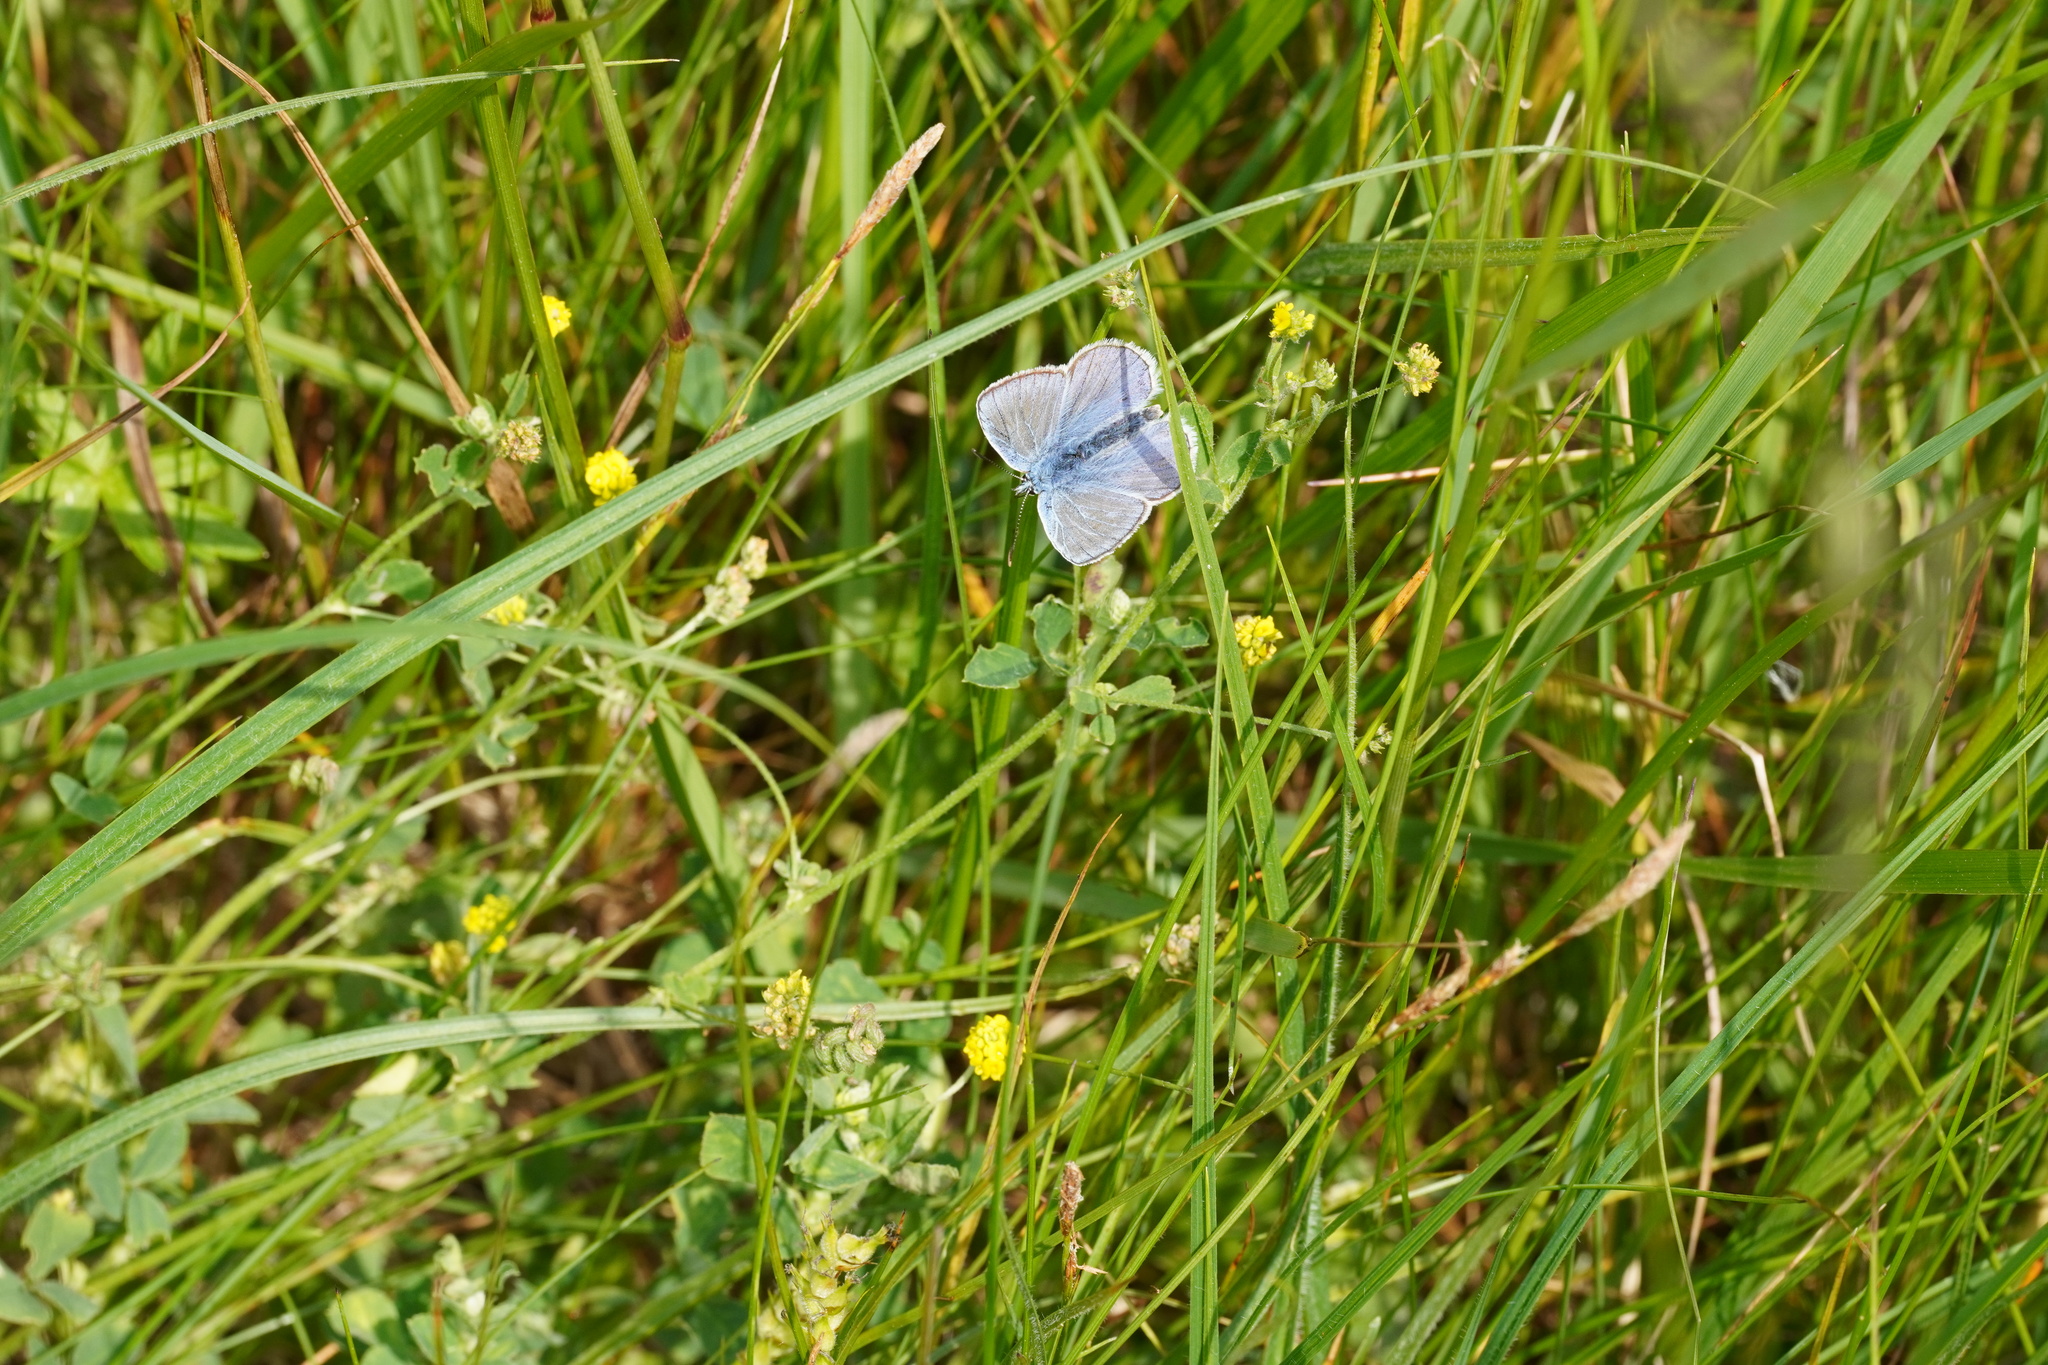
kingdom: Animalia
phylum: Arthropoda
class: Insecta
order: Lepidoptera
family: Lycaenidae
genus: Polyommatus
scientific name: Polyommatus icarus
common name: Common blue
